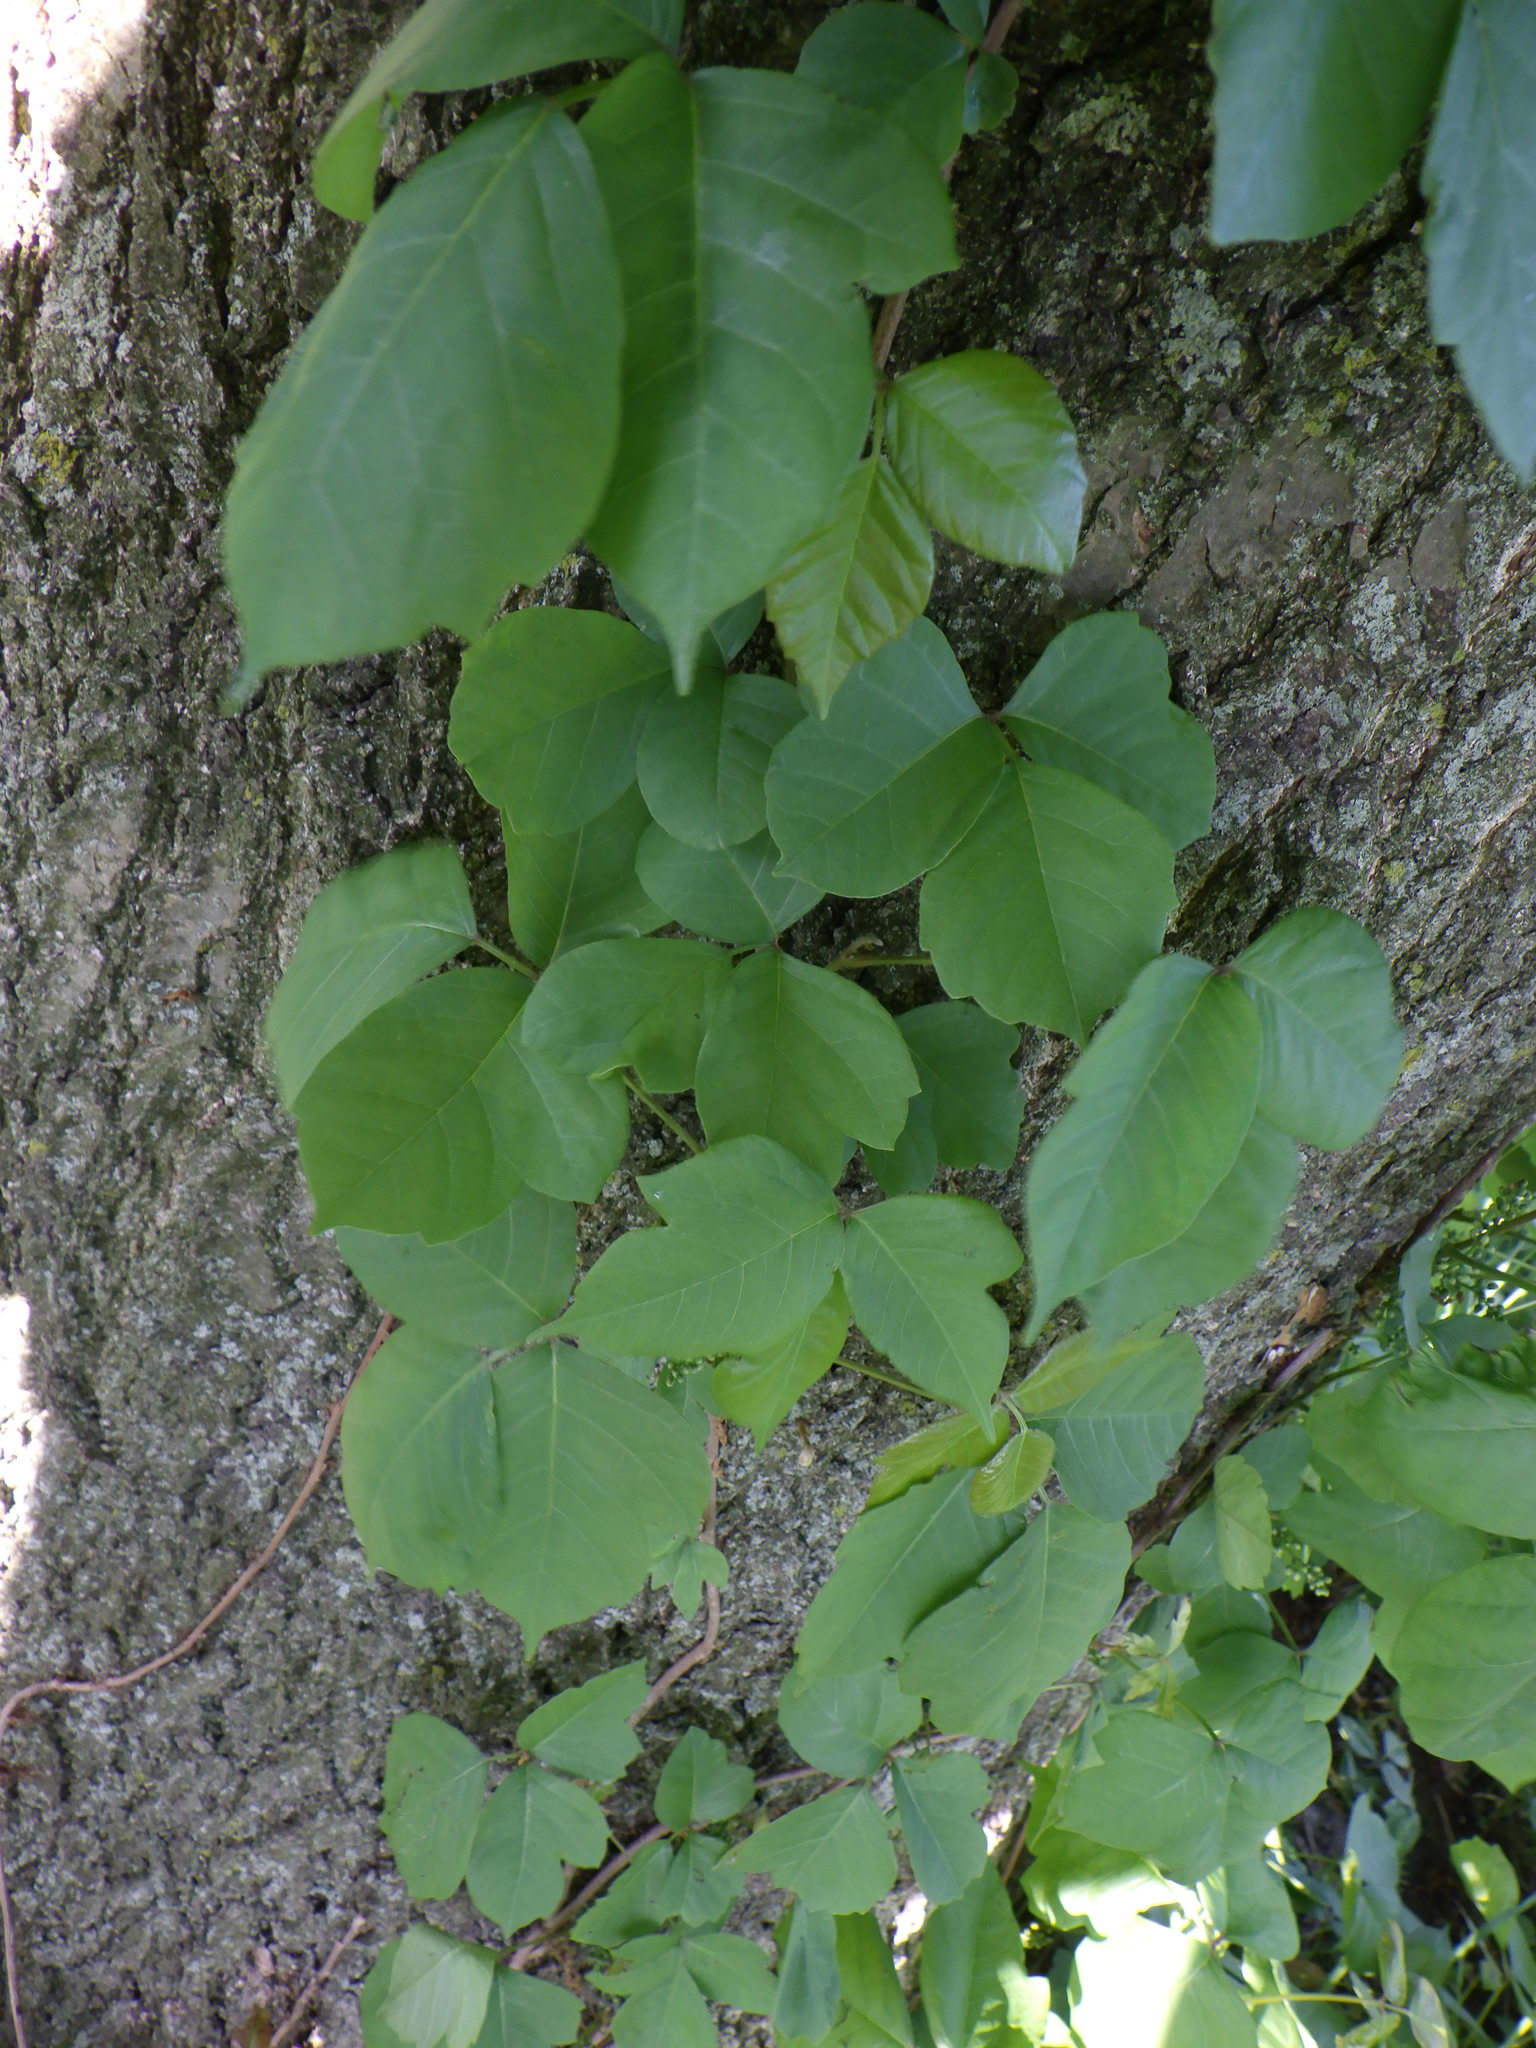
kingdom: Plantae
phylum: Tracheophyta
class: Magnoliopsida
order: Sapindales
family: Anacardiaceae
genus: Toxicodendron
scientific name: Toxicodendron radicans
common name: Poison ivy
